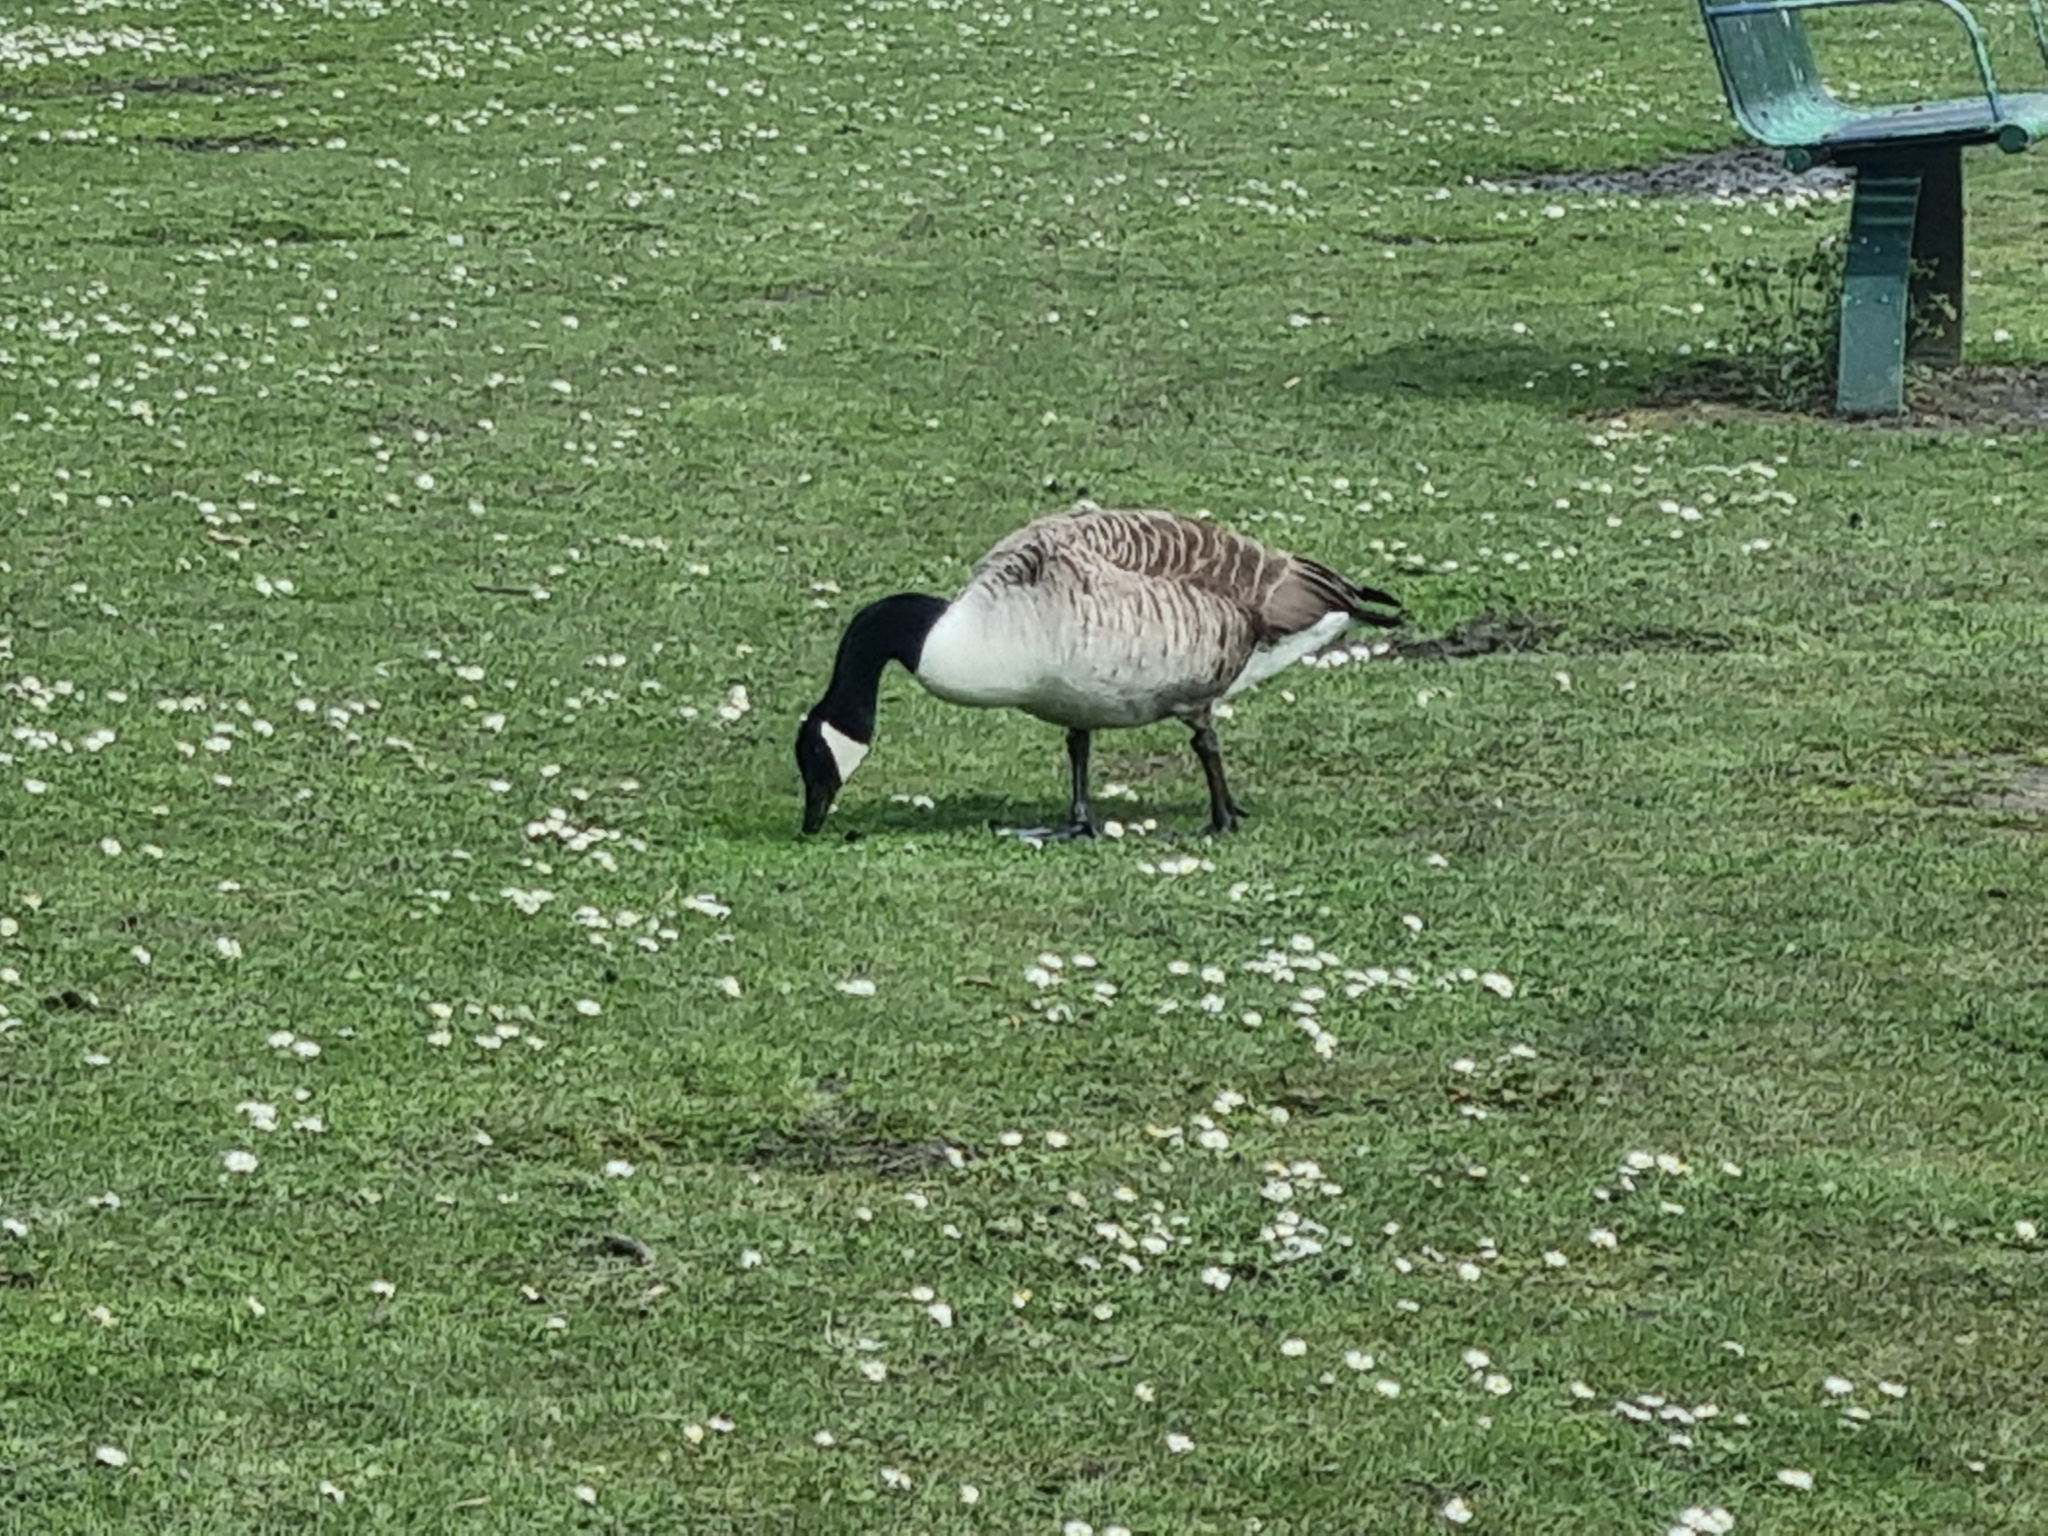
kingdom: Animalia
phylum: Chordata
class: Aves
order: Anseriformes
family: Anatidae
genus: Branta
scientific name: Branta canadensis
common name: Canada goose
